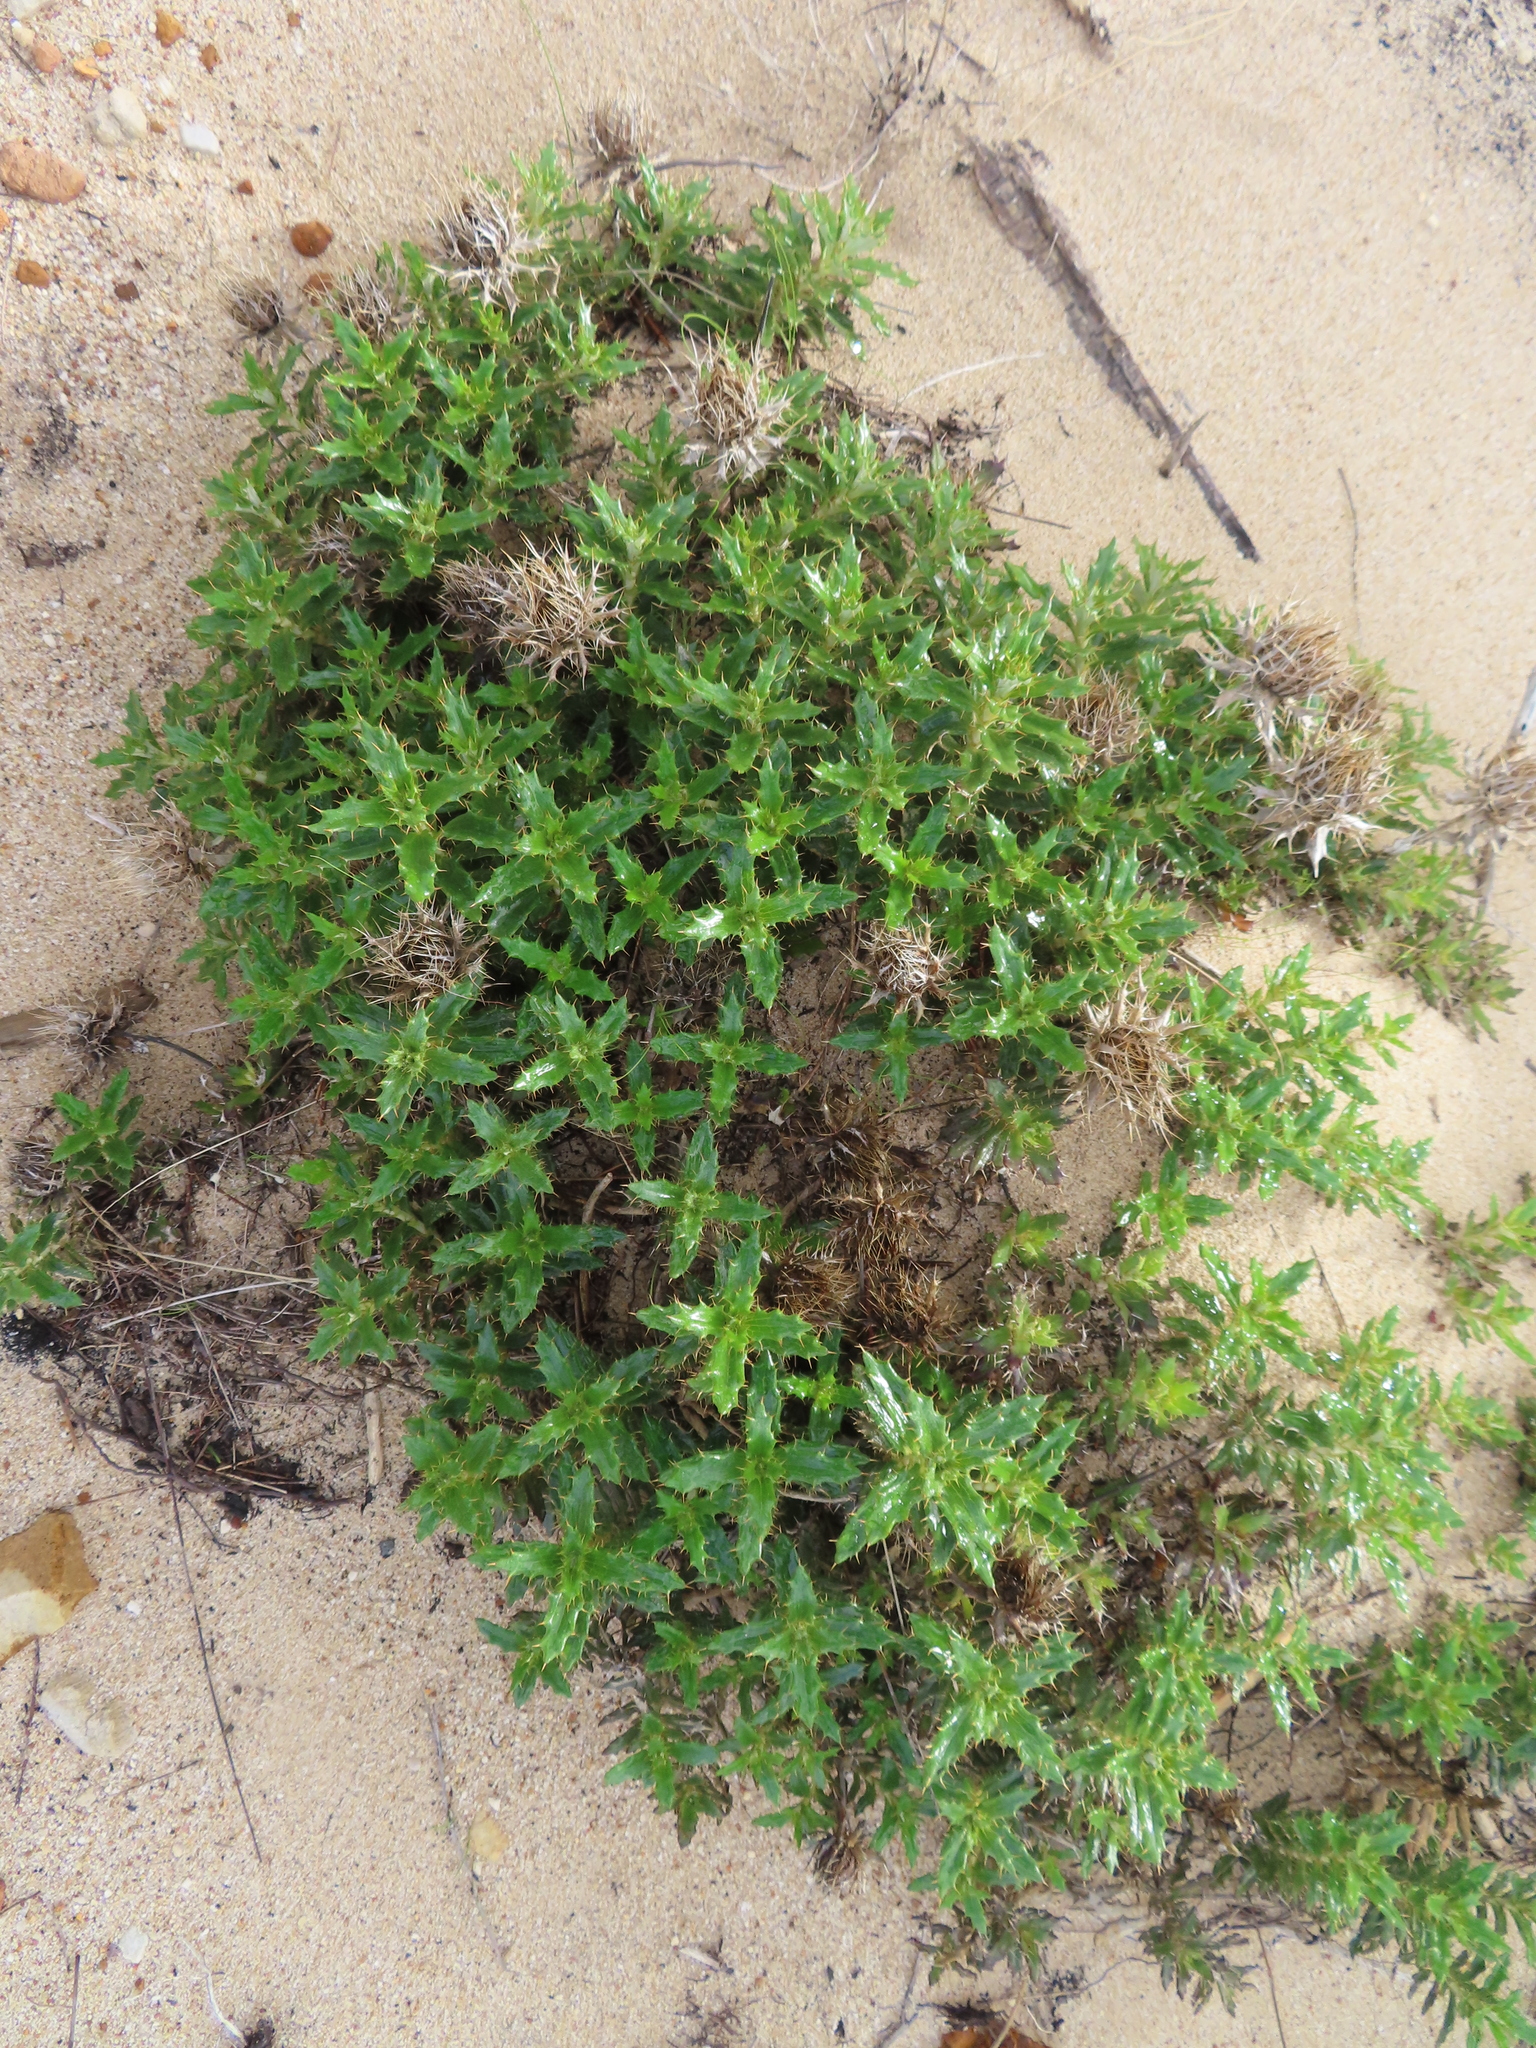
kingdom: Plantae
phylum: Tracheophyta
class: Magnoliopsida
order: Asterales
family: Asteraceae
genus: Berkheya
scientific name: Berkheya coriacea
